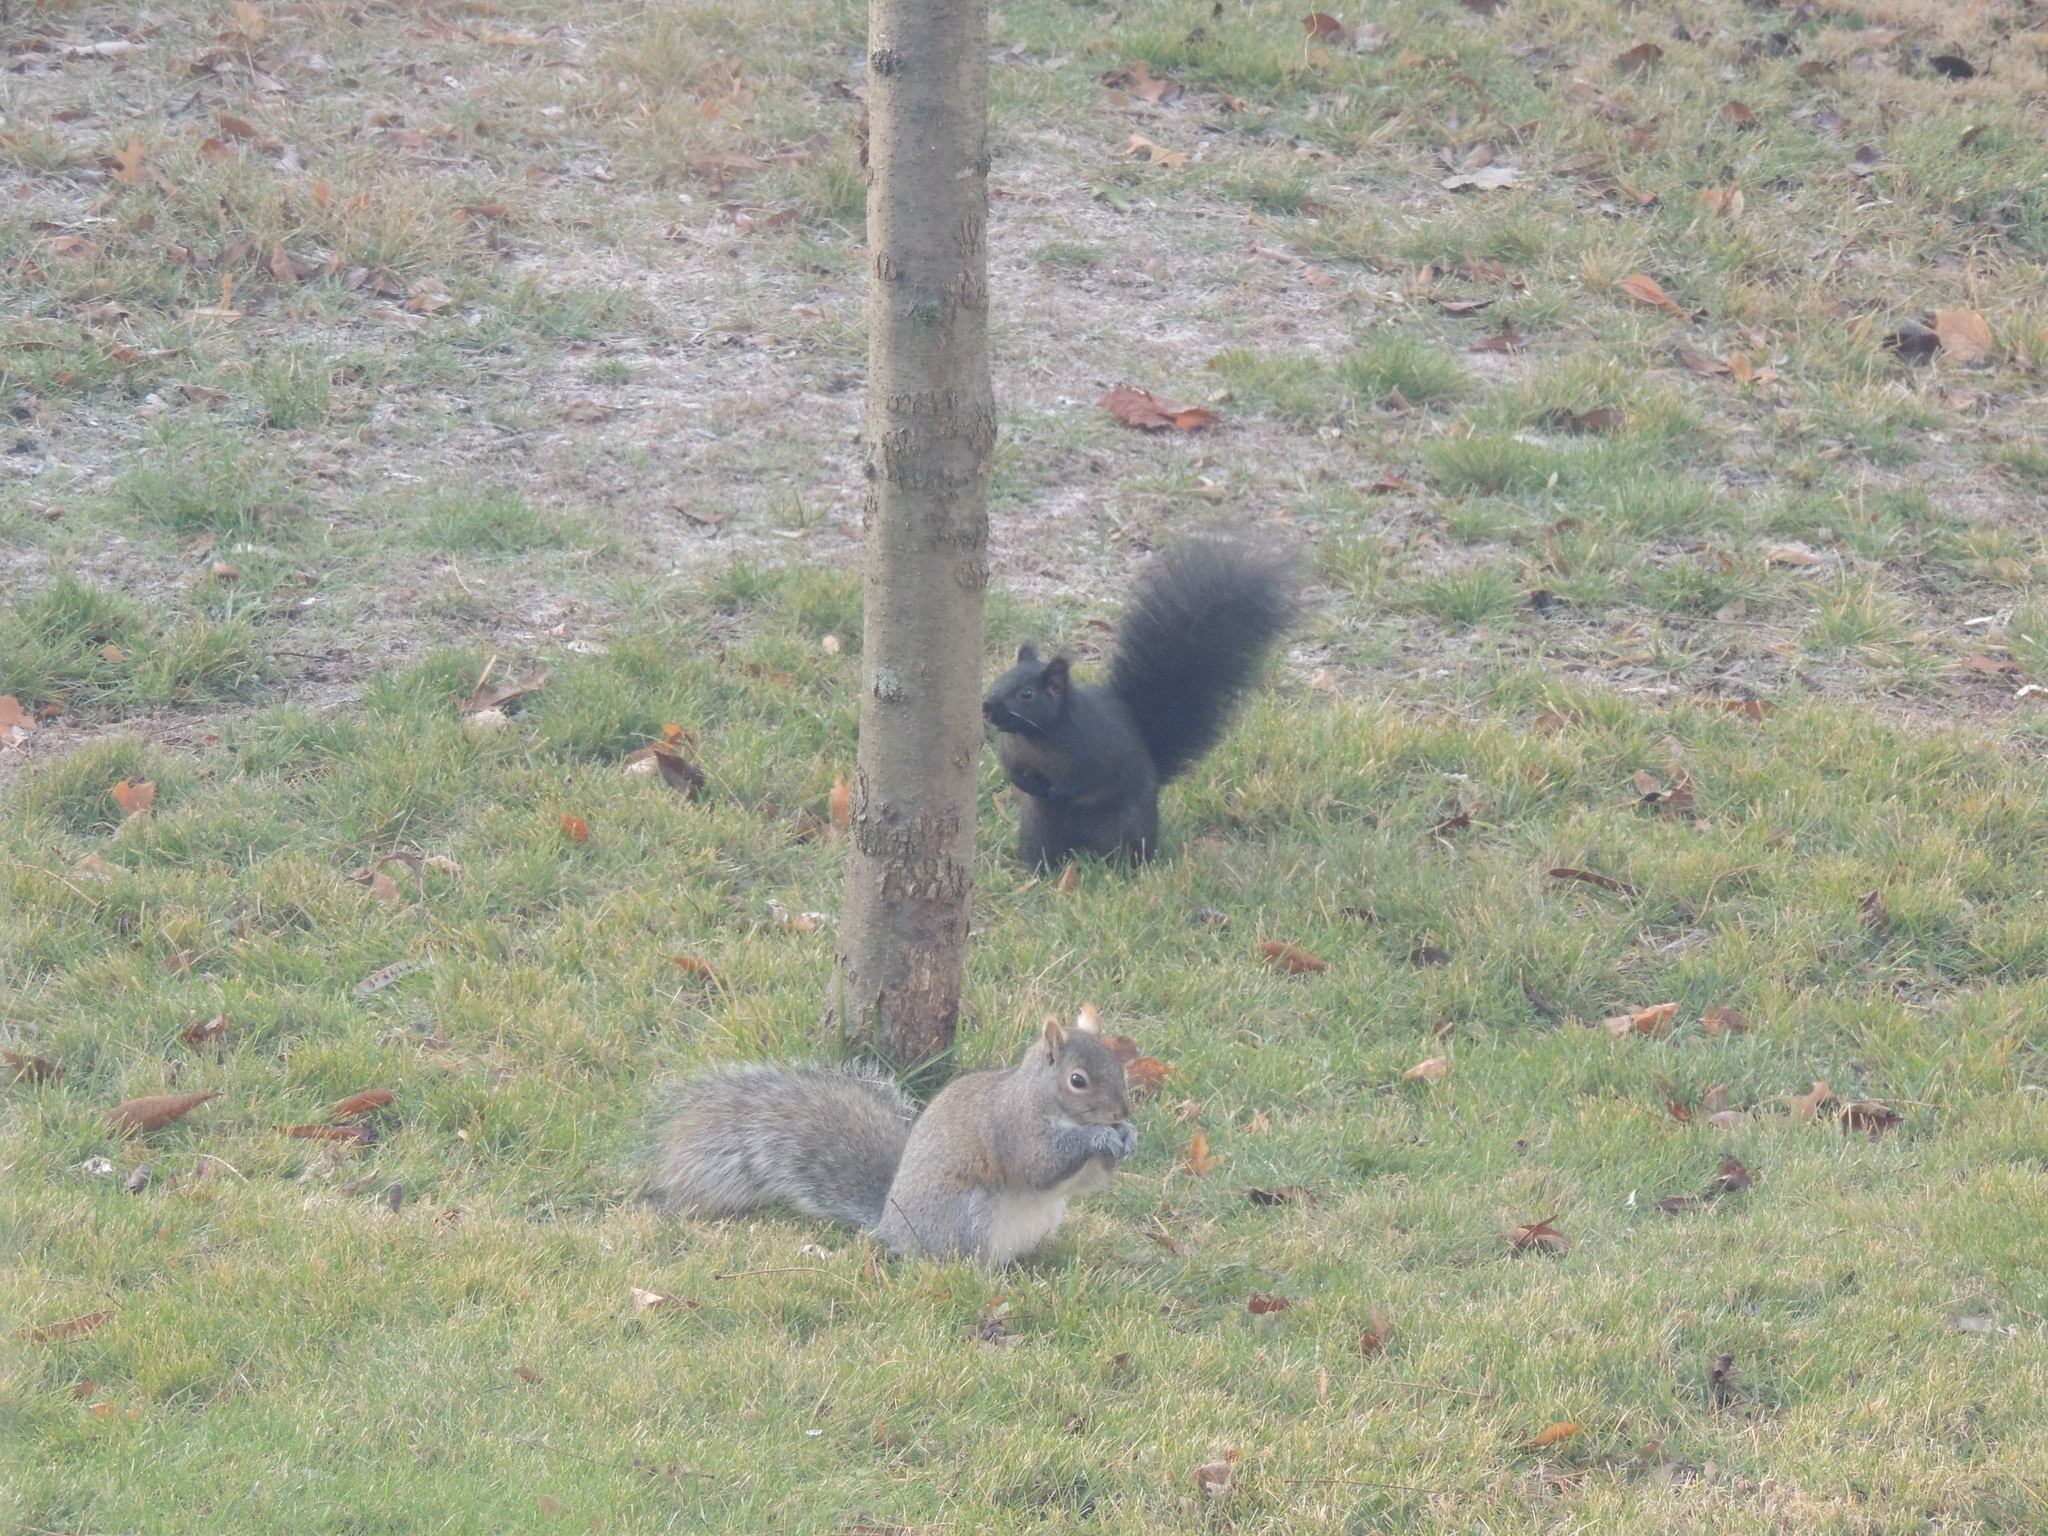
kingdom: Animalia
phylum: Chordata
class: Mammalia
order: Rodentia
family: Sciuridae
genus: Sciurus
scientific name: Sciurus carolinensis
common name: Eastern gray squirrel
